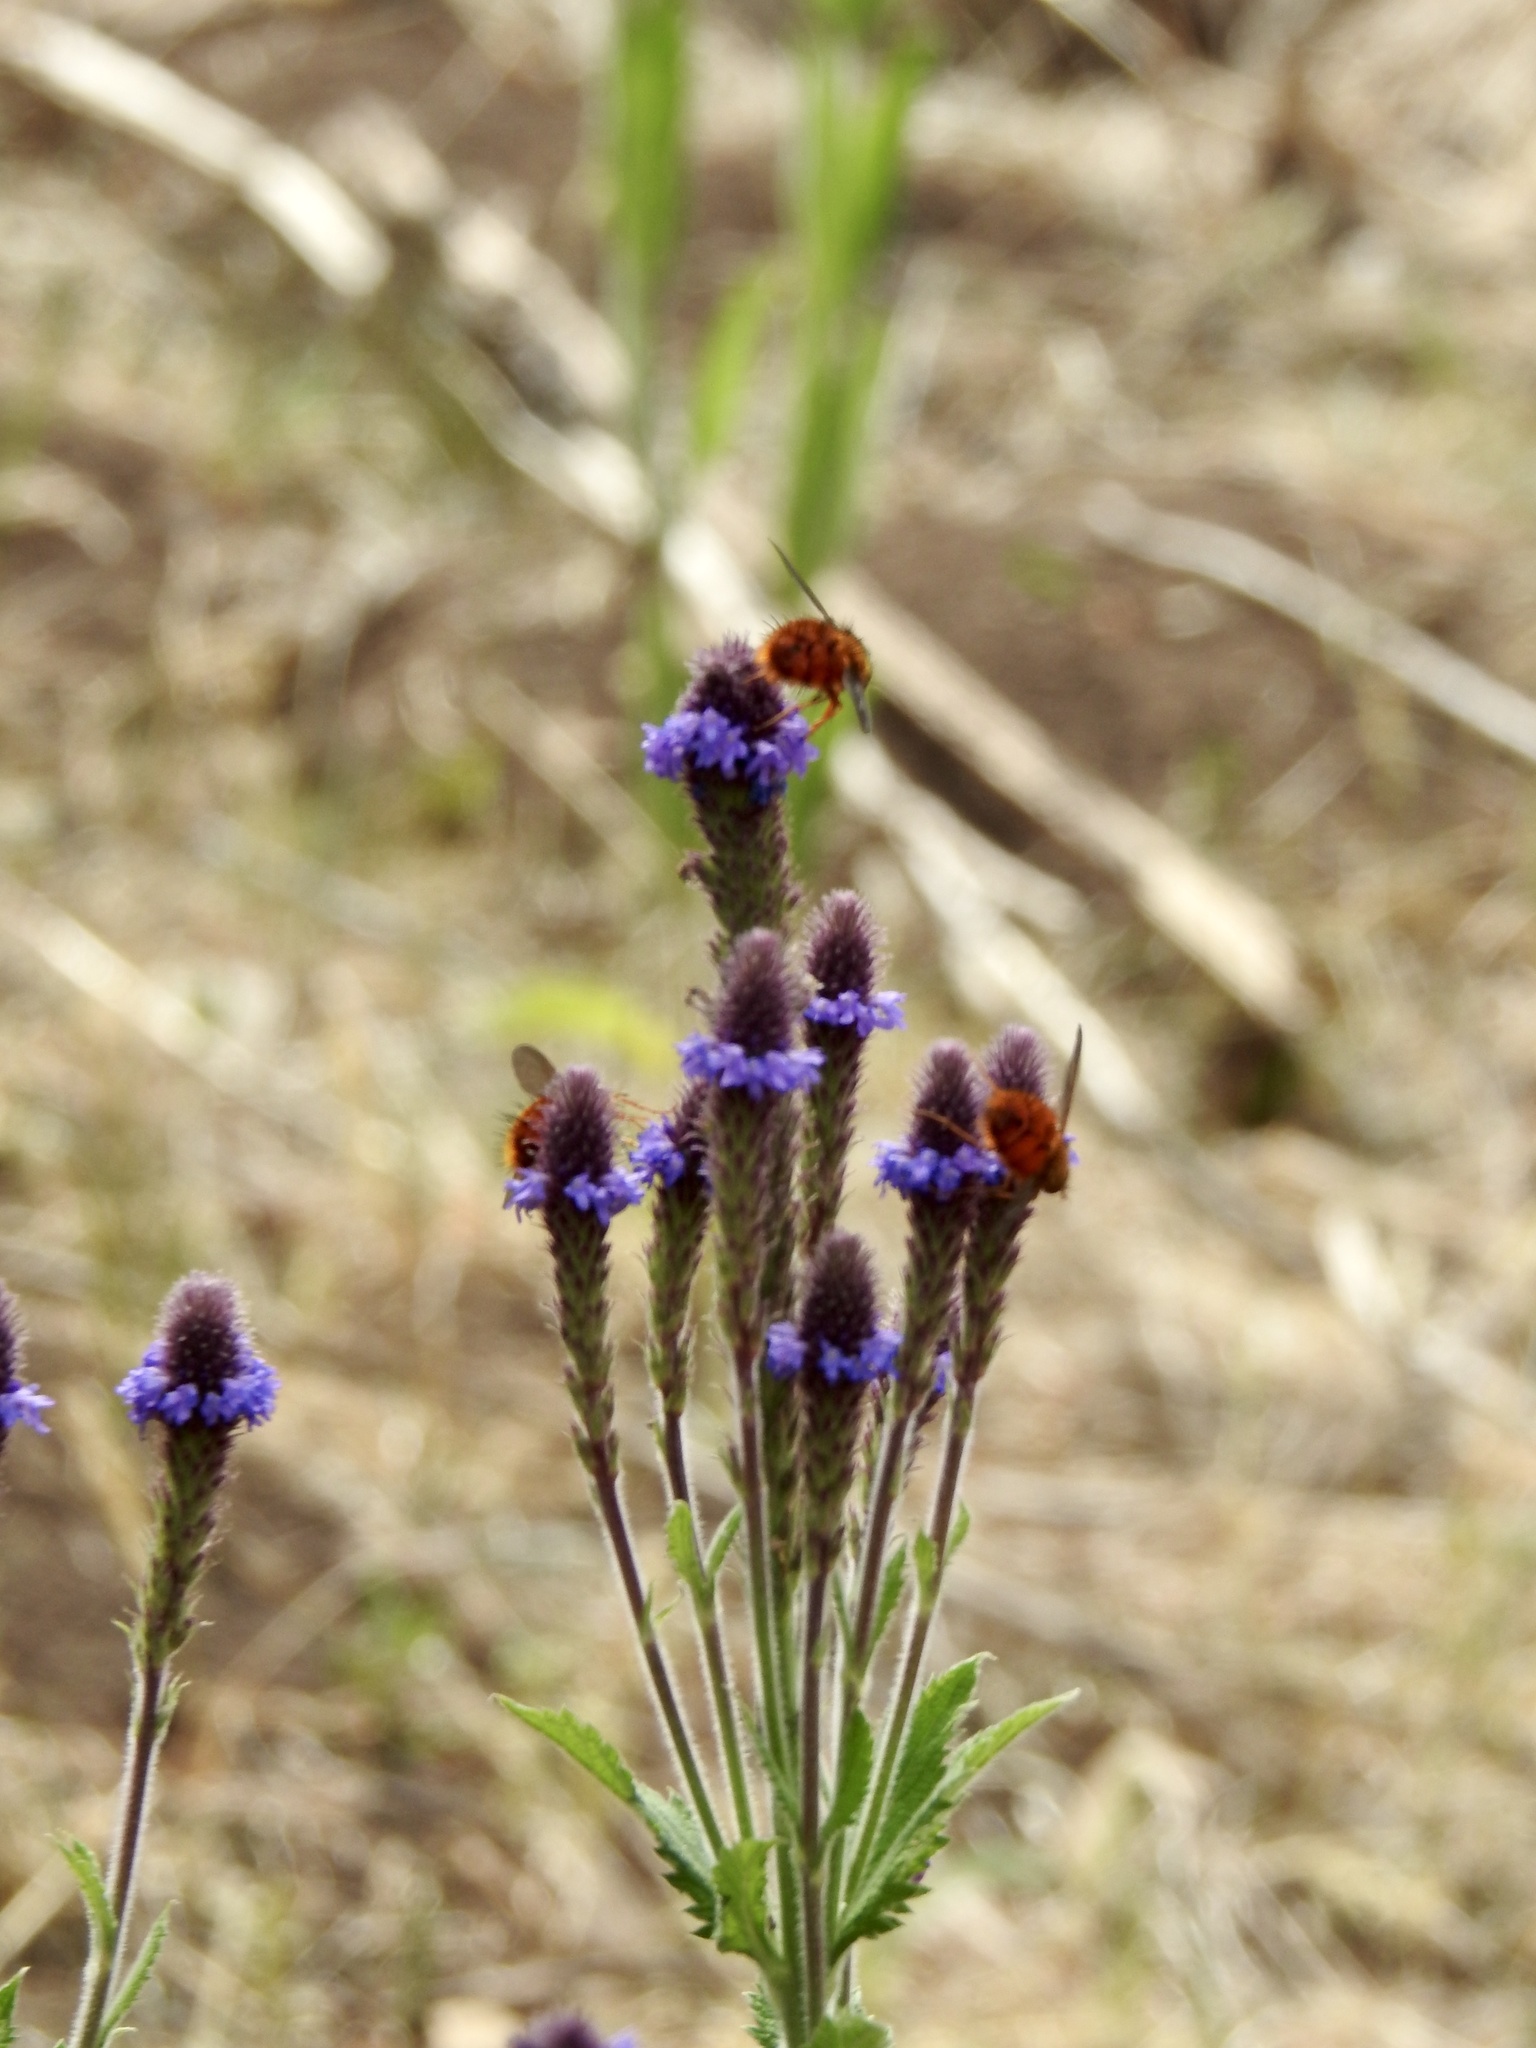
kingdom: Animalia
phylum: Arthropoda
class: Insecta
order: Diptera
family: Tachinidae
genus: Adejeania
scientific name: Adejeania vexatrix
